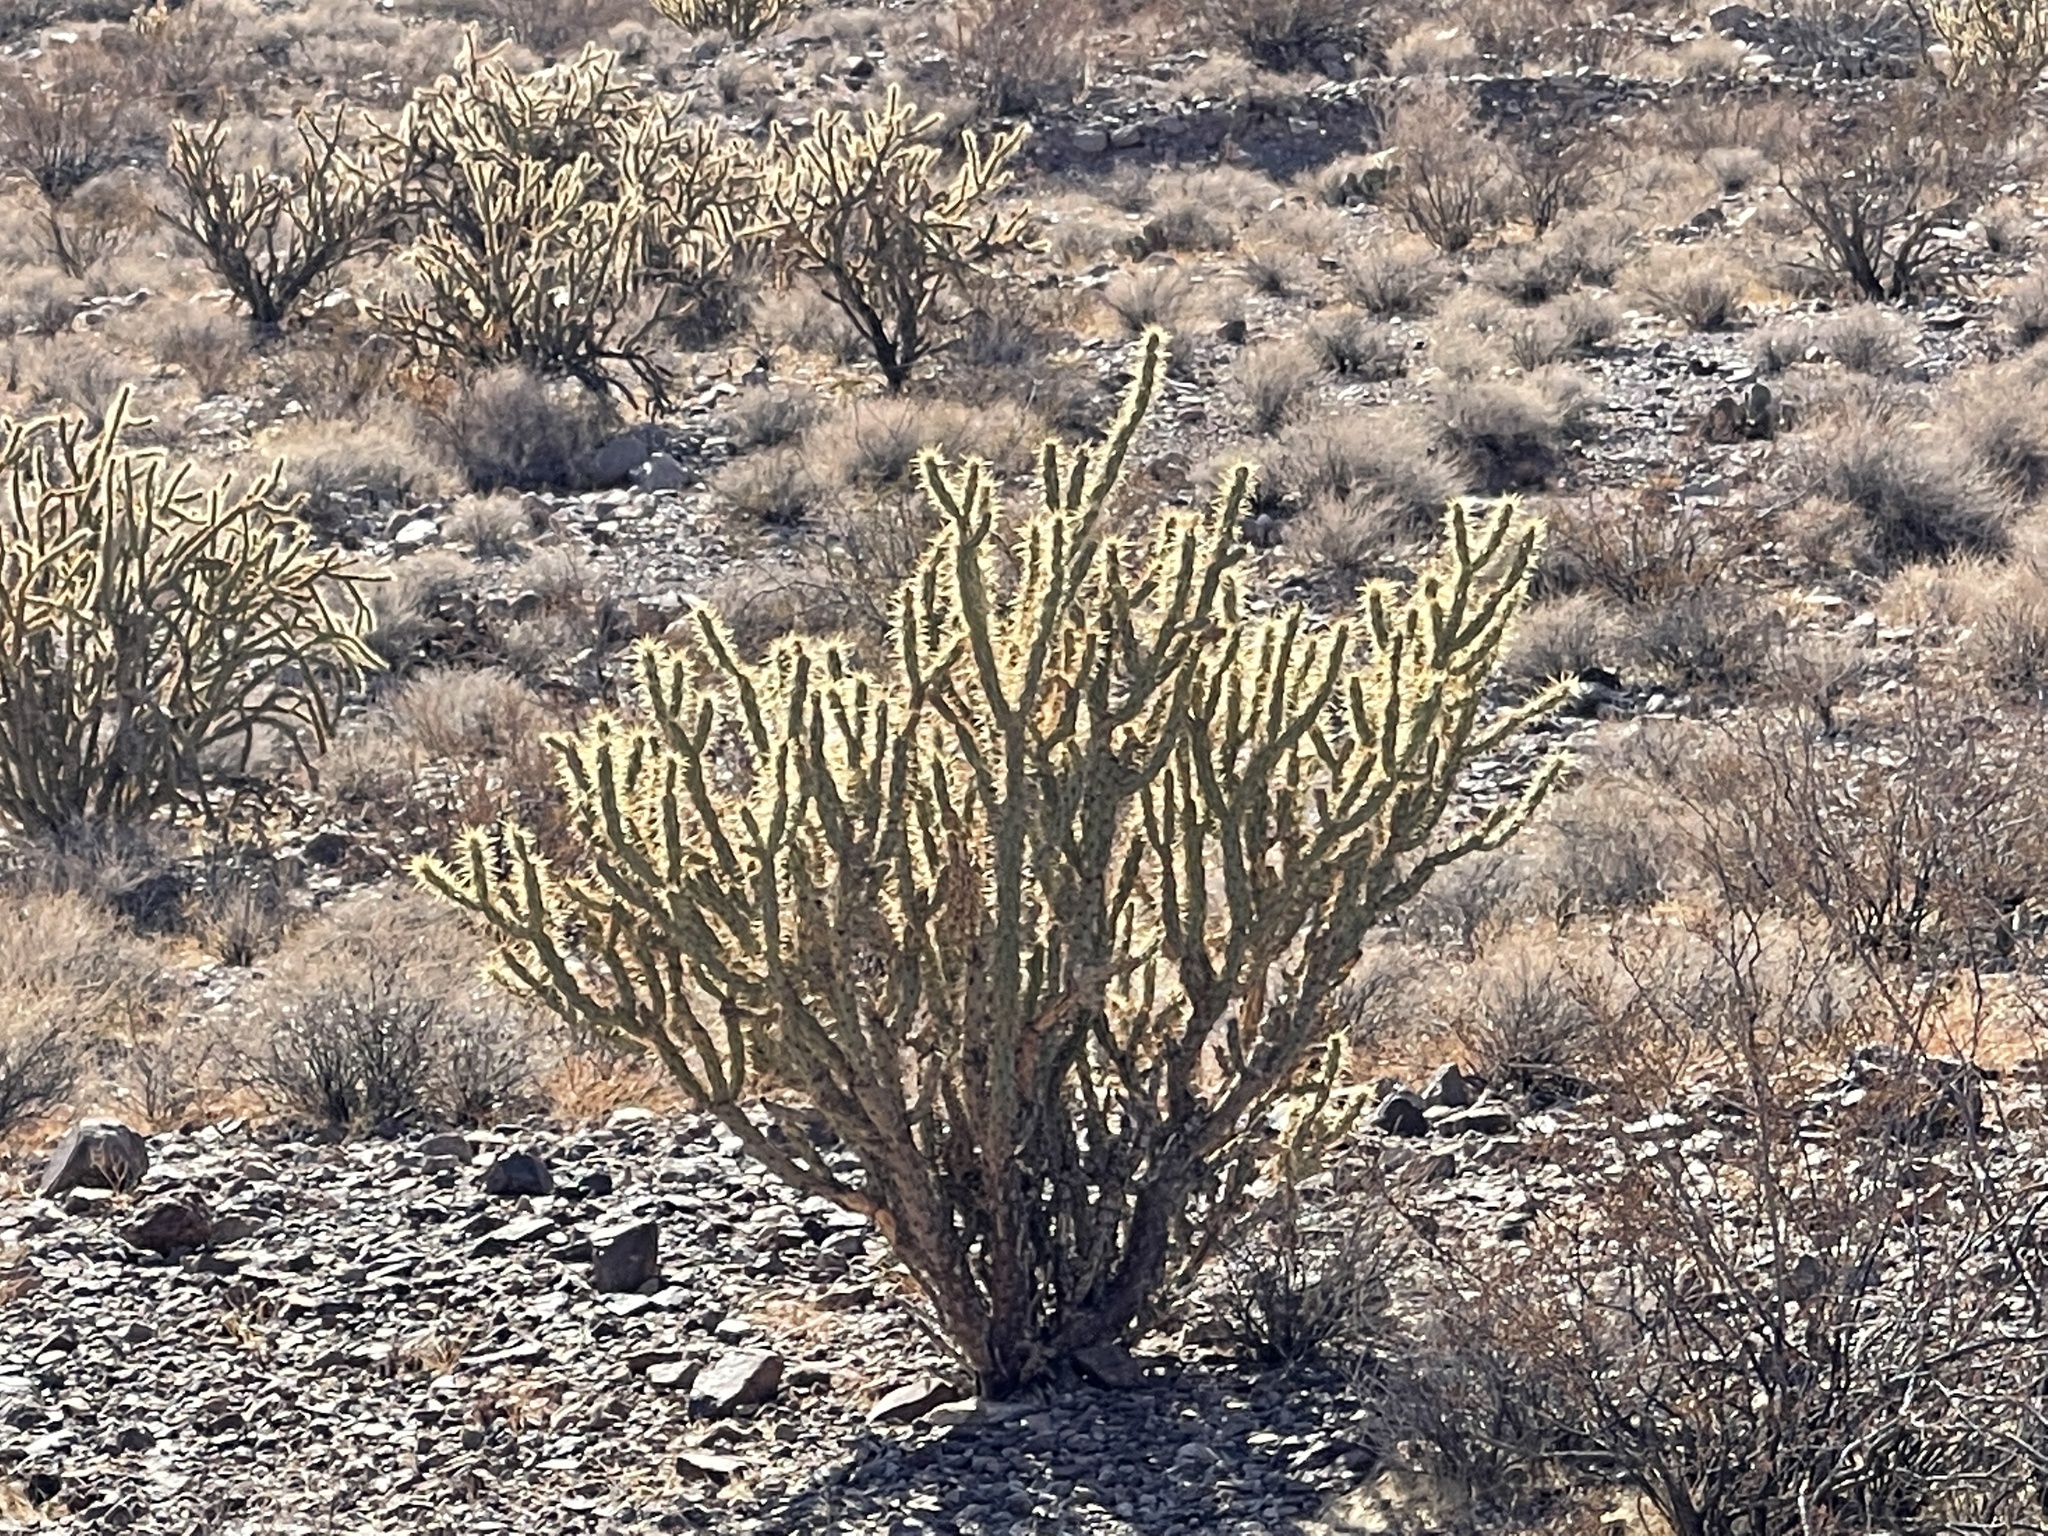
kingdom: Plantae
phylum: Tracheophyta
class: Magnoliopsida
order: Caryophyllales
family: Cactaceae
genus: Cylindropuntia
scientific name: Cylindropuntia acanthocarpa
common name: Buckhorn cholla
